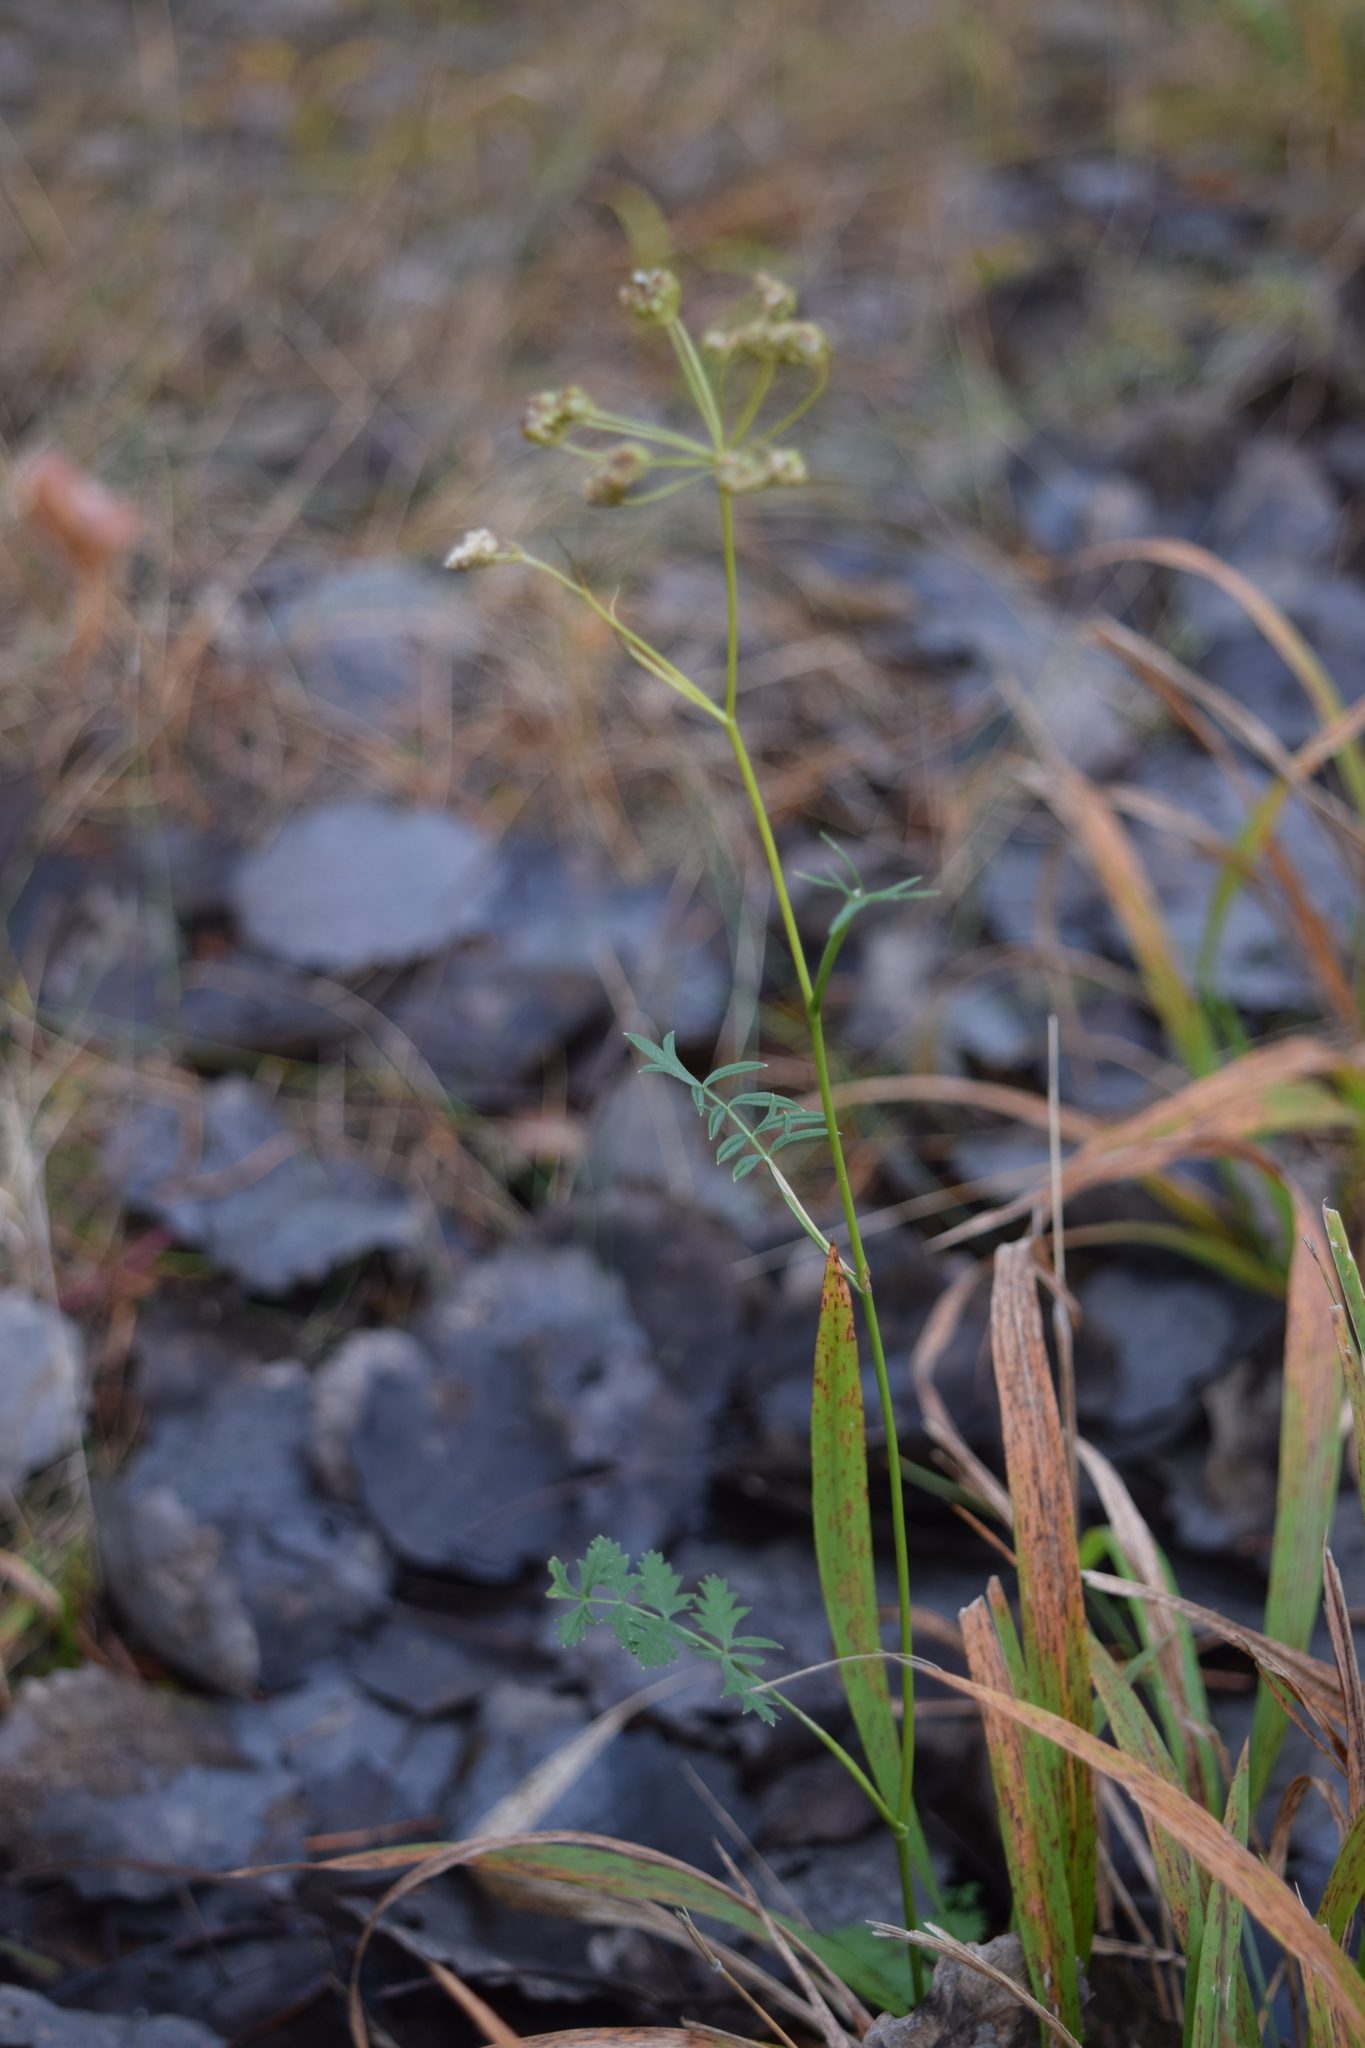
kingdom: Plantae
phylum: Tracheophyta
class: Magnoliopsida
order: Apiales
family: Apiaceae
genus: Pimpinella
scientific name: Pimpinella saxifraga
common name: Burnet-saxifrage
